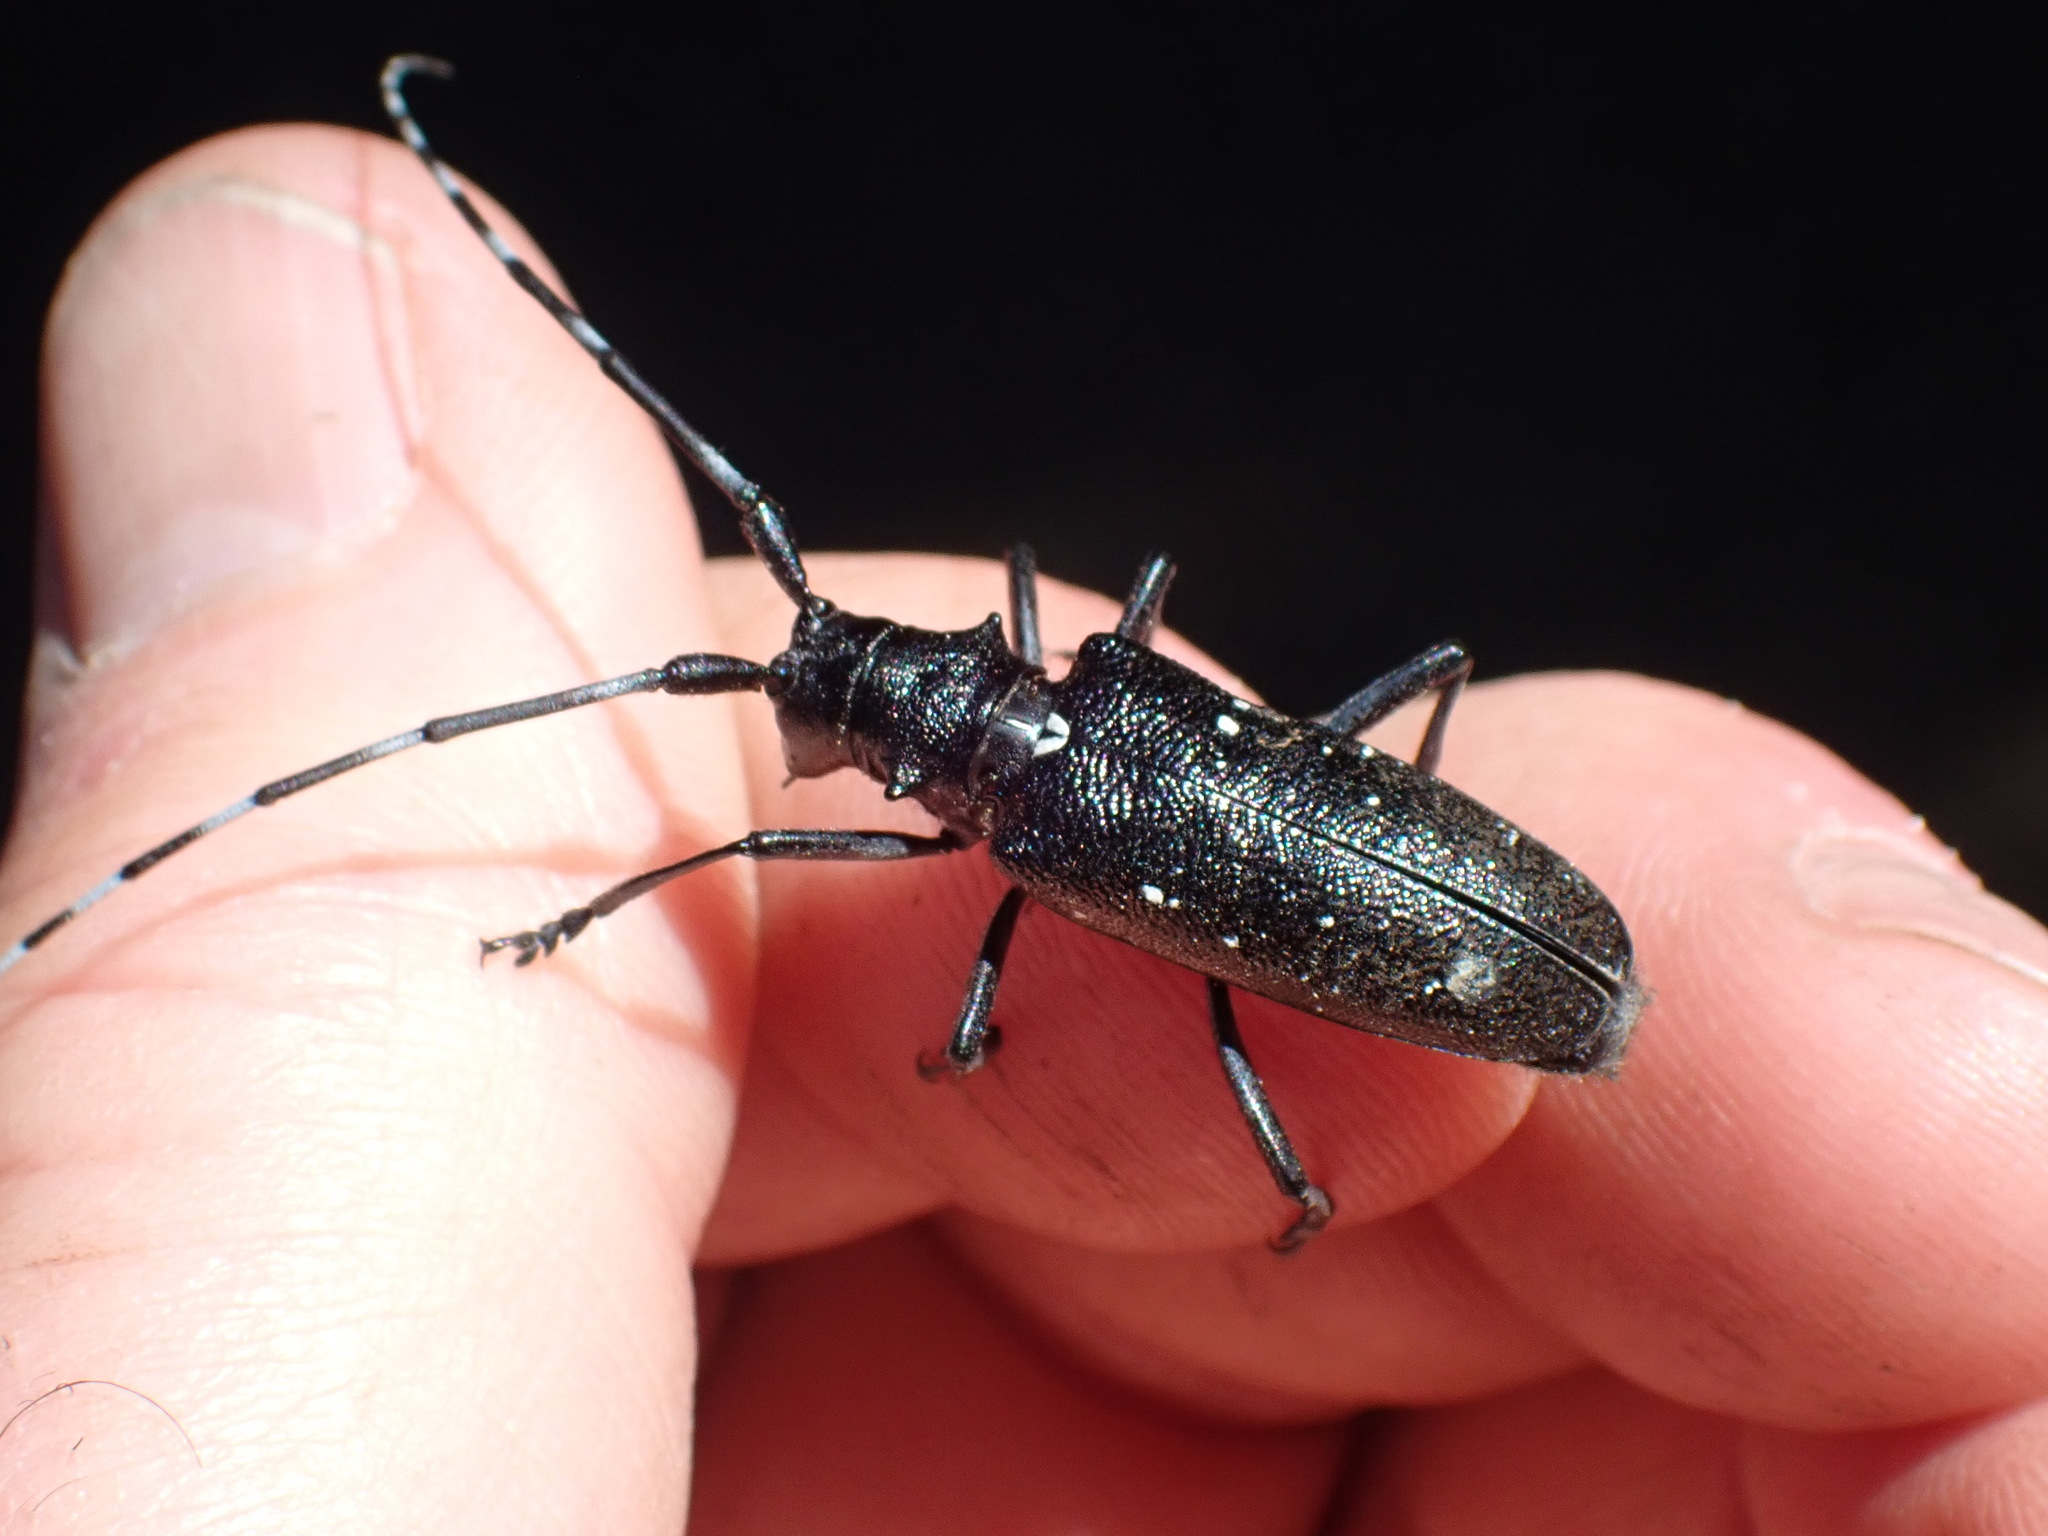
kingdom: Animalia
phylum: Arthropoda
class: Insecta
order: Coleoptera
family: Cerambycidae
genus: Monochamus
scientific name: Monochamus scutellatus
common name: White-spotted sawyer beetle
